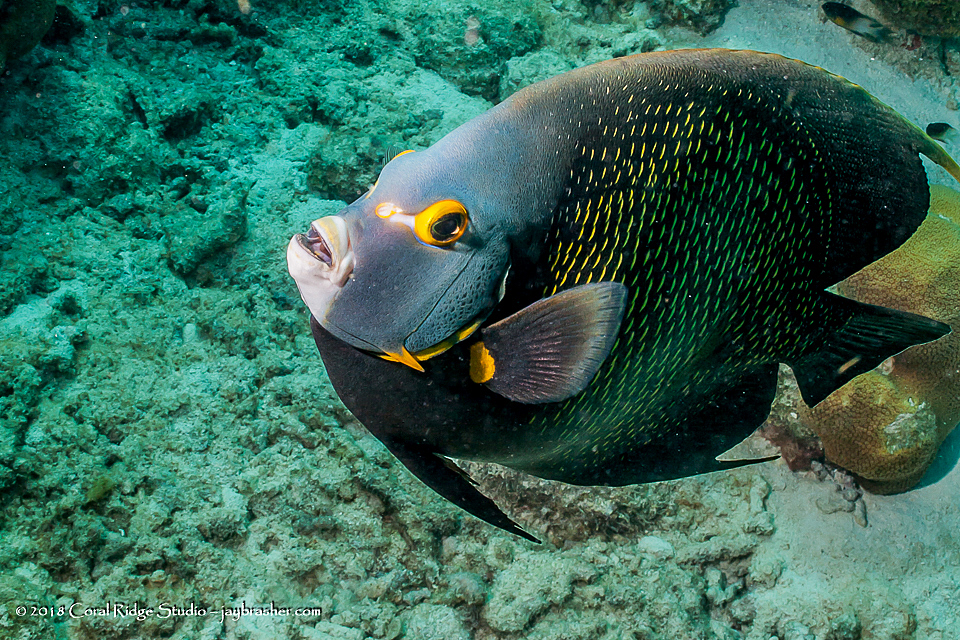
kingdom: Animalia
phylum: Chordata
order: Perciformes
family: Pomacanthidae
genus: Pomacanthus
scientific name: Pomacanthus paru
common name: French angelfish
